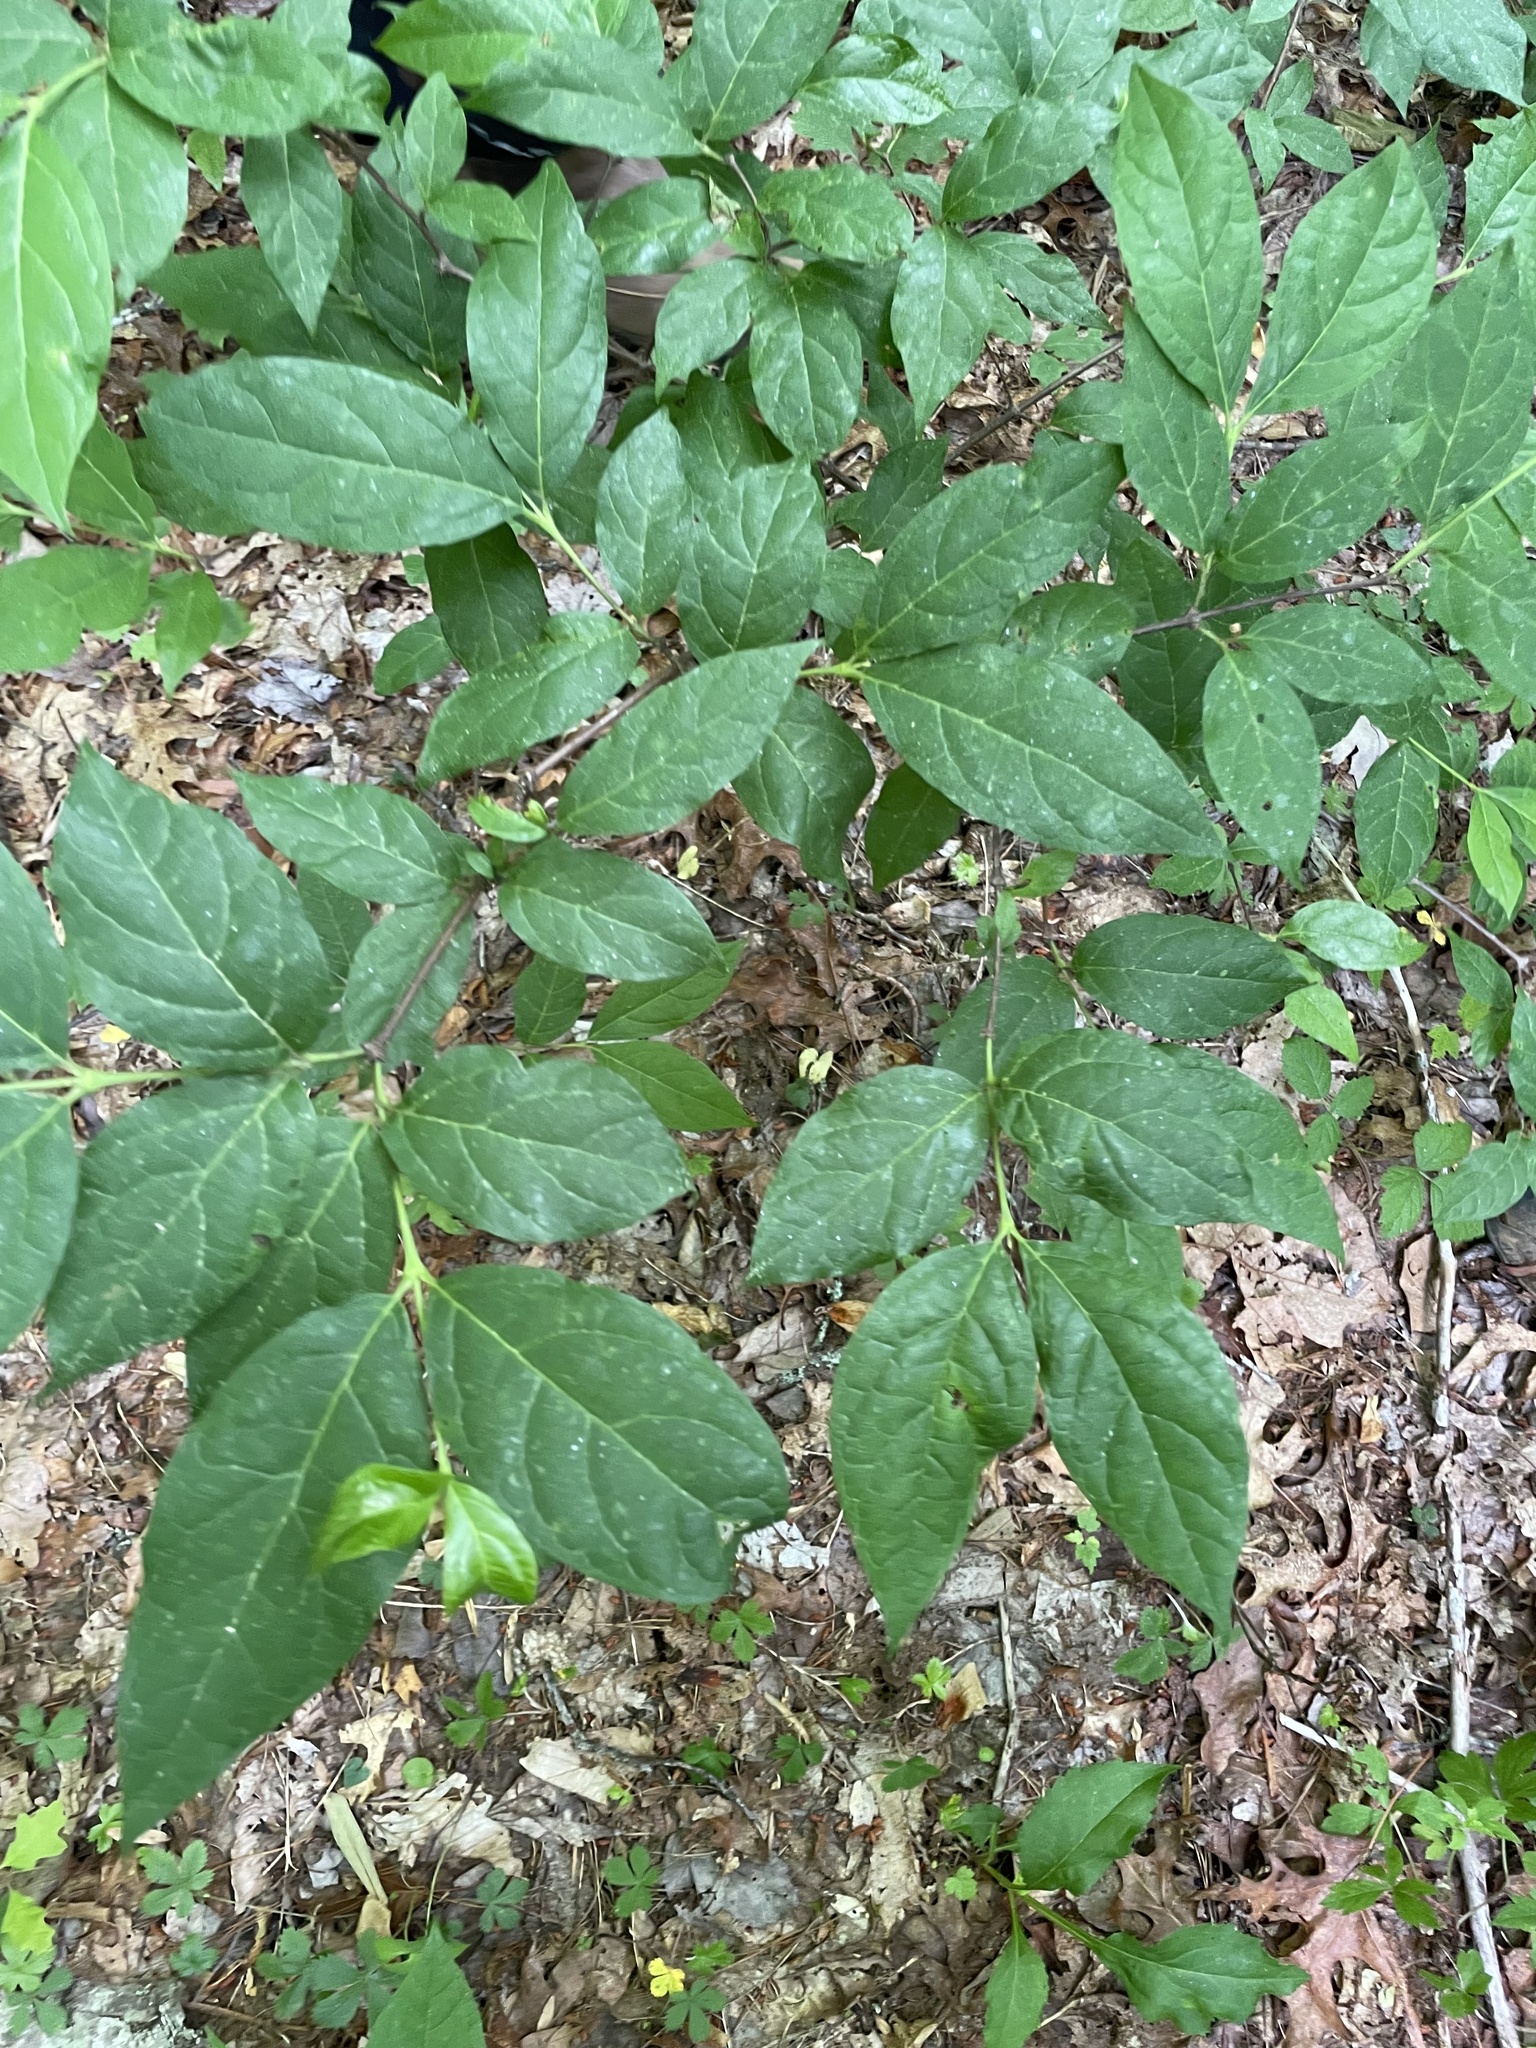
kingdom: Plantae
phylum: Tracheophyta
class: Magnoliopsida
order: Laurales
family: Calycanthaceae
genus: Calycanthus
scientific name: Calycanthus floridus
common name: Carolina-allspice
